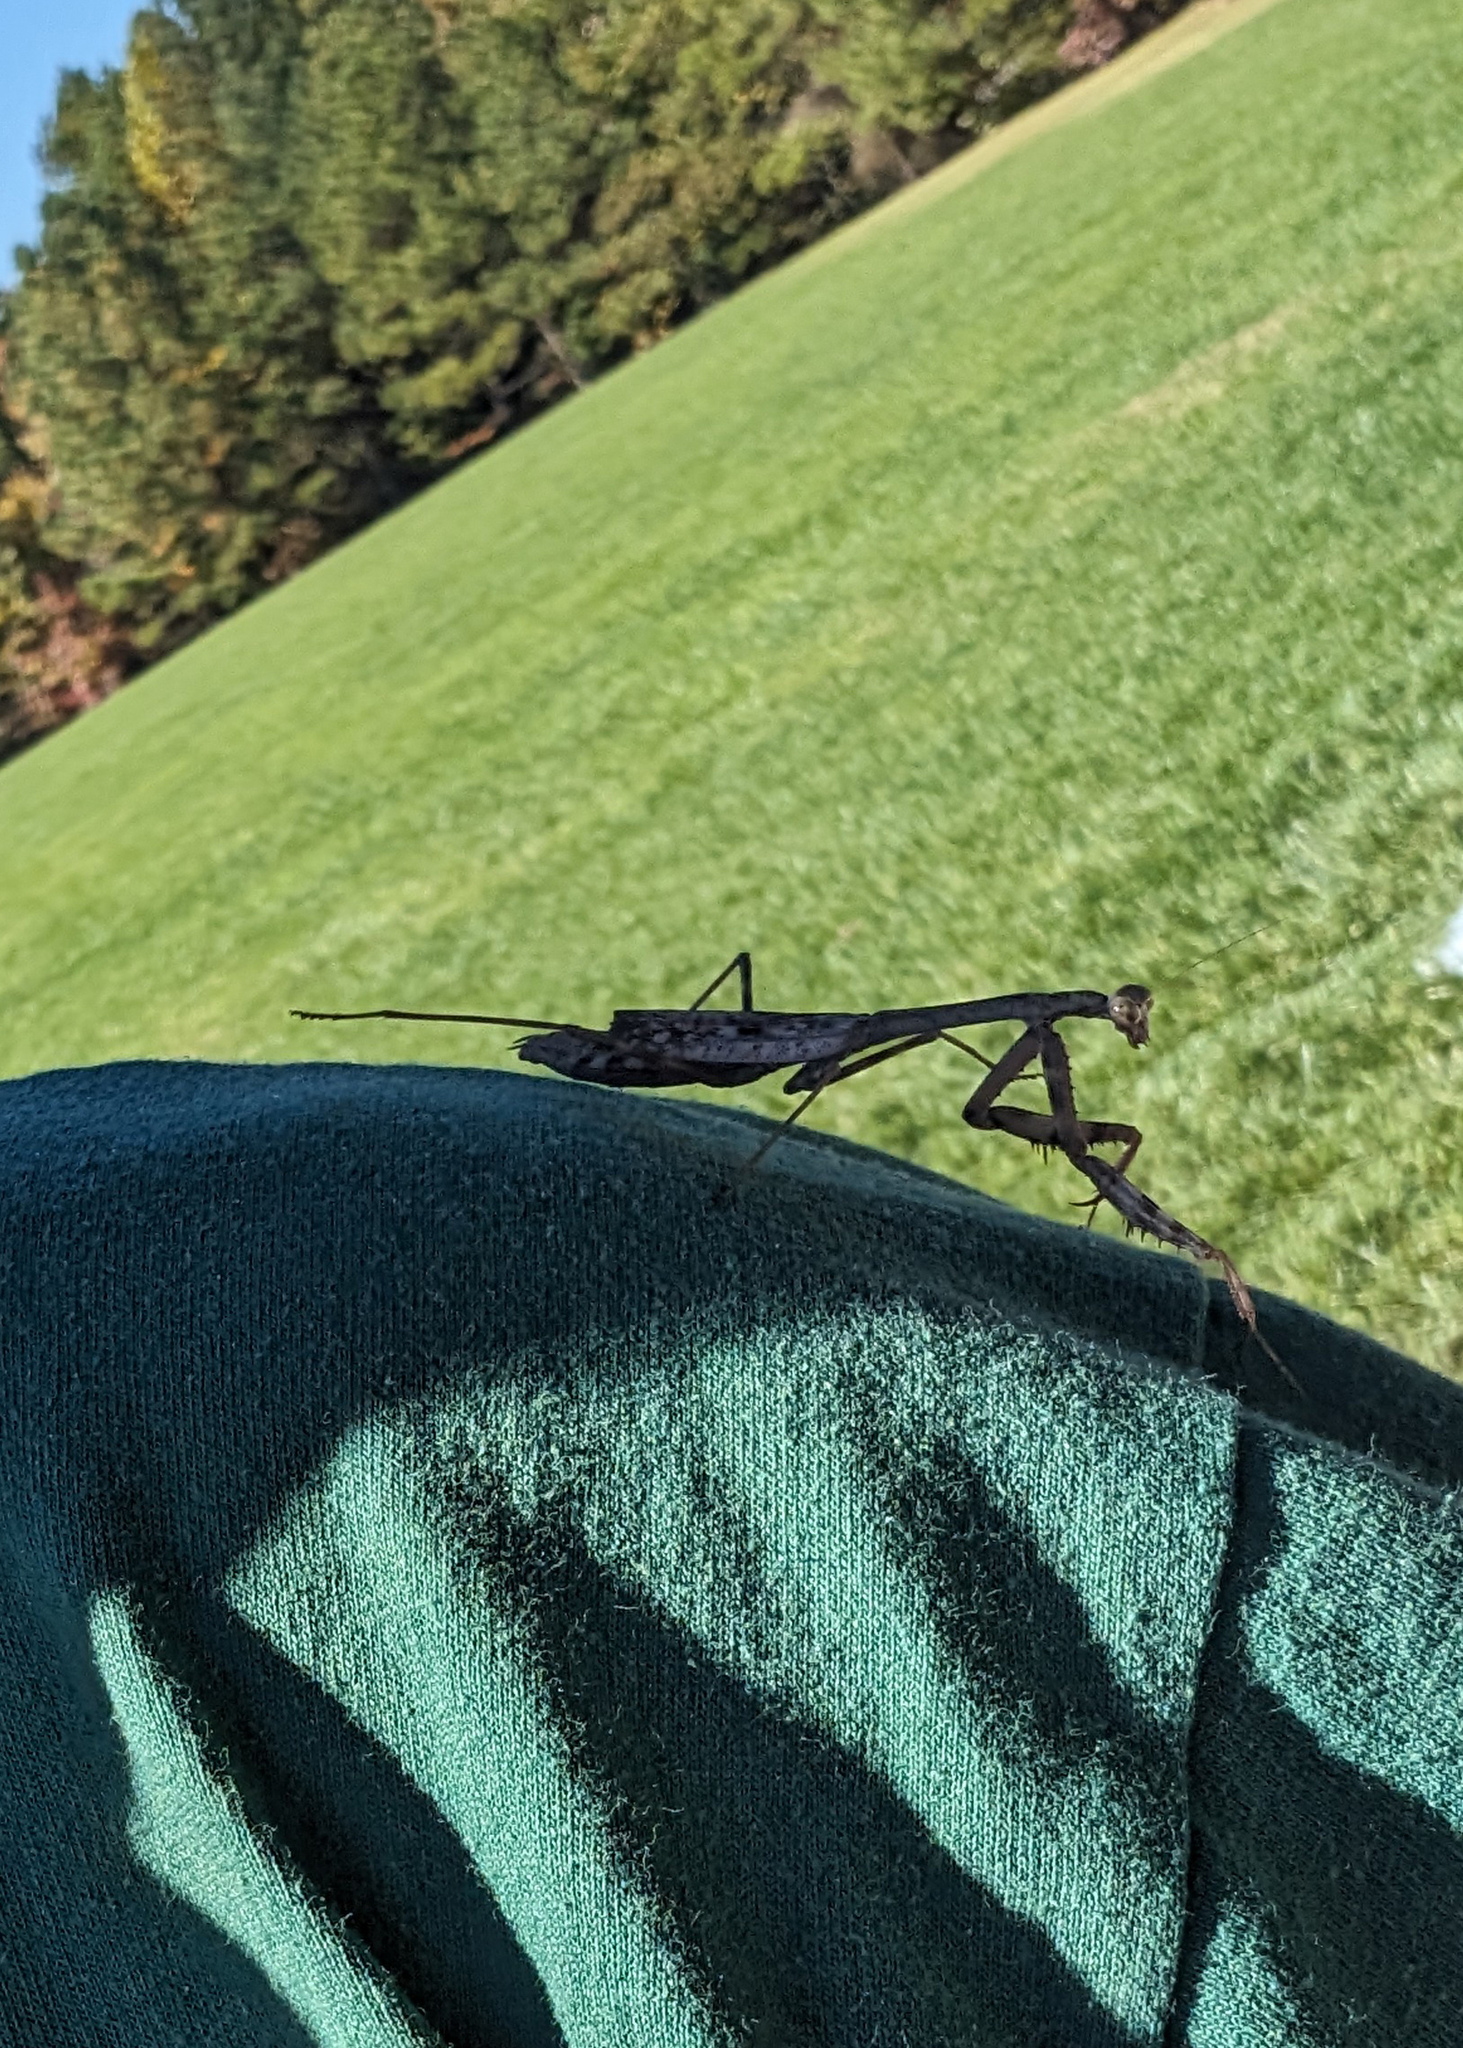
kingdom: Animalia
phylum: Arthropoda
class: Insecta
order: Mantodea
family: Mantidae
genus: Stagmomantis
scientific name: Stagmomantis carolina
